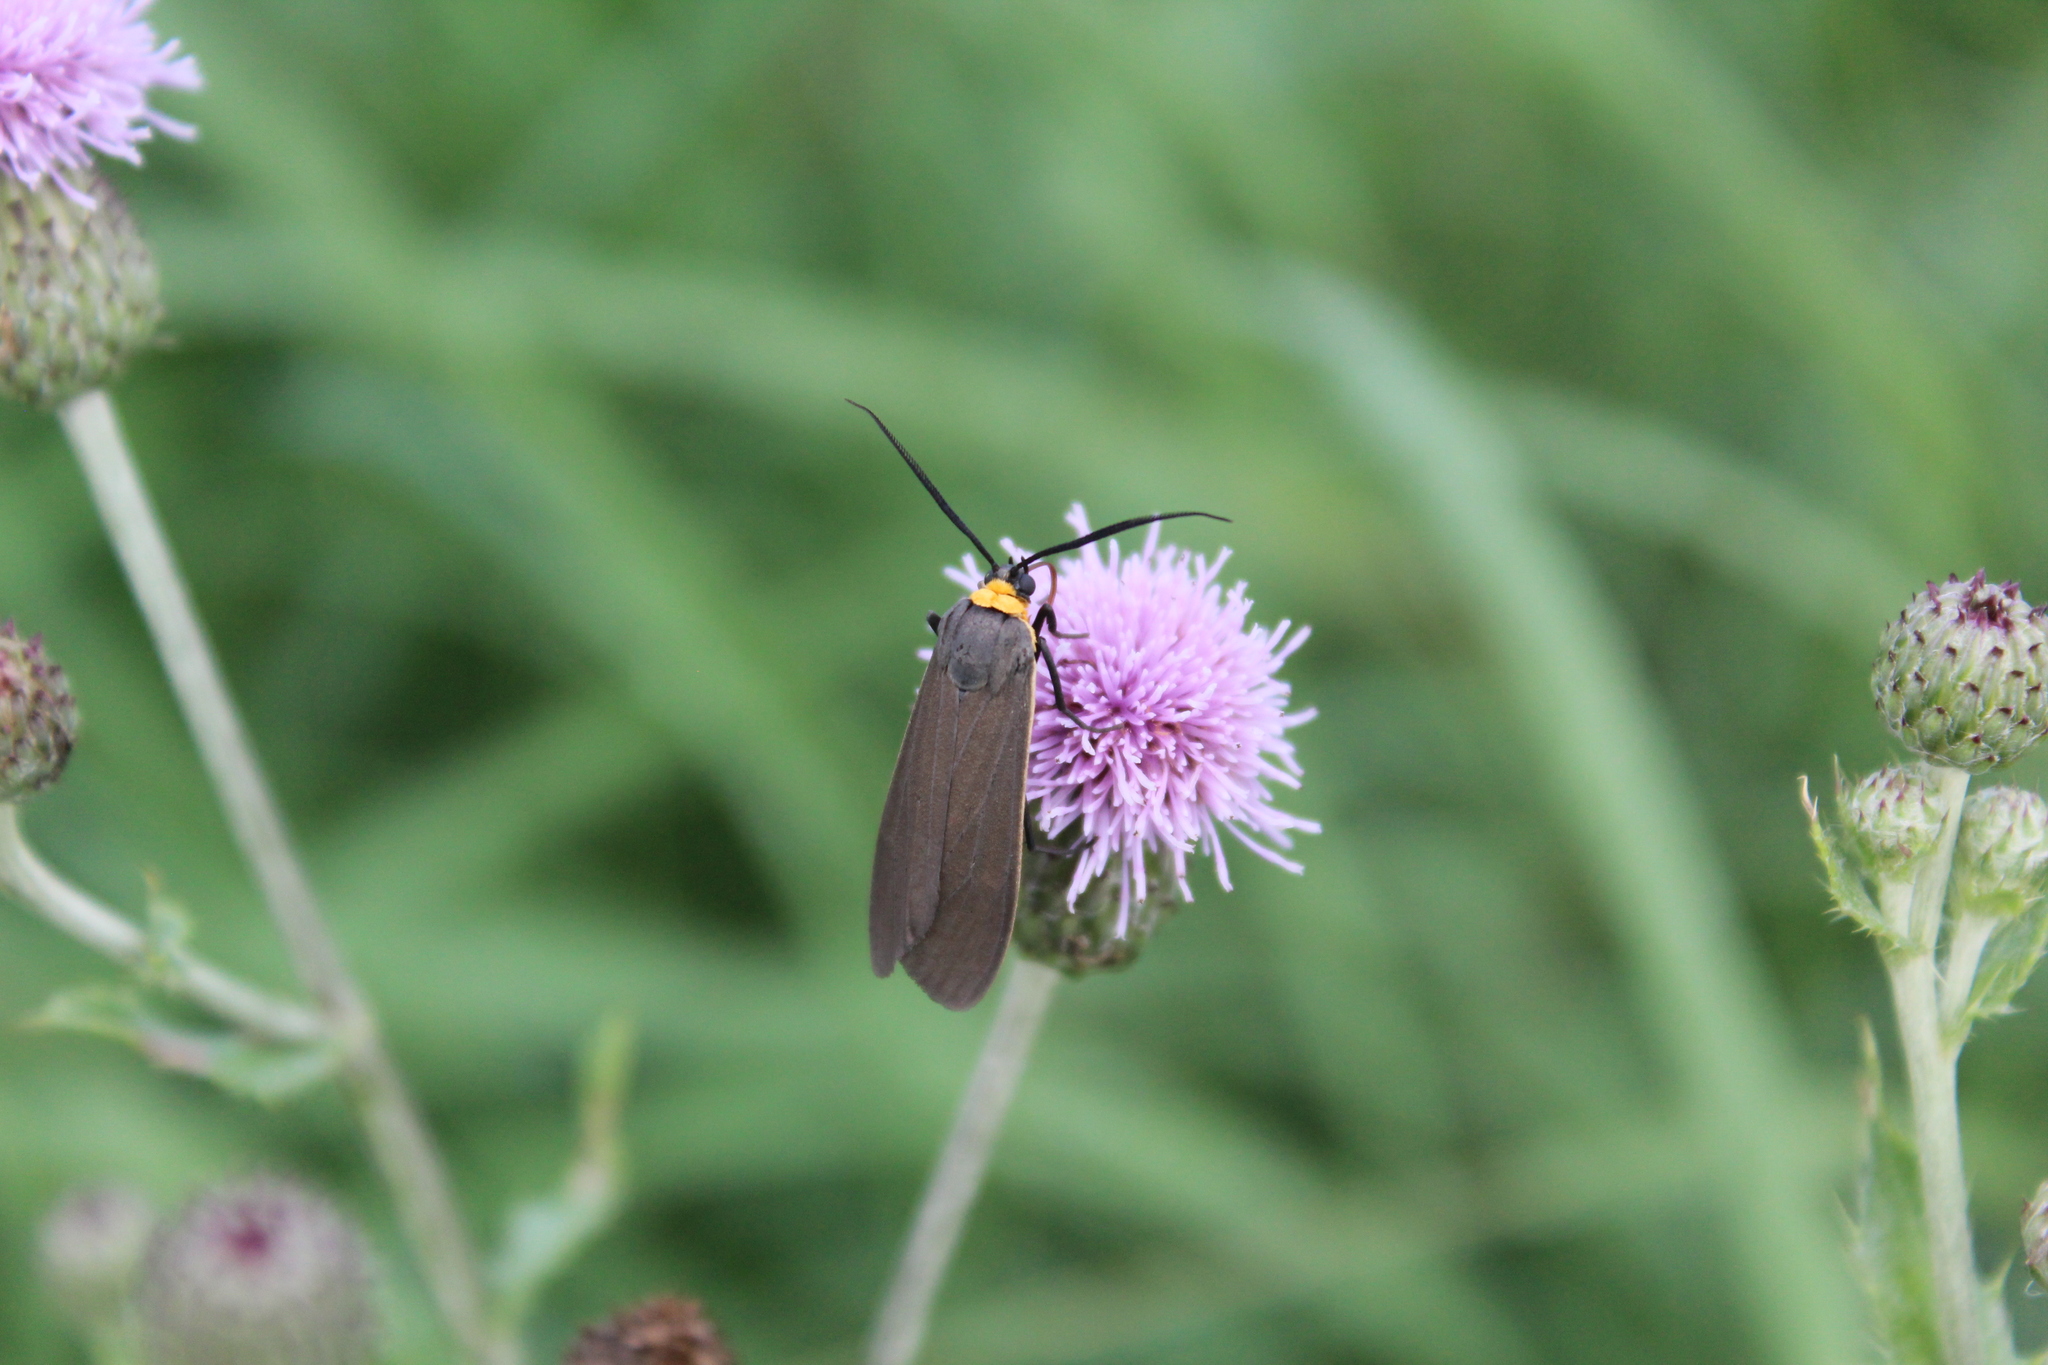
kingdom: Animalia
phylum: Arthropoda
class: Insecta
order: Lepidoptera
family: Erebidae
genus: Cisseps
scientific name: Cisseps fulvicollis
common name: Yellow-collared scape moth
